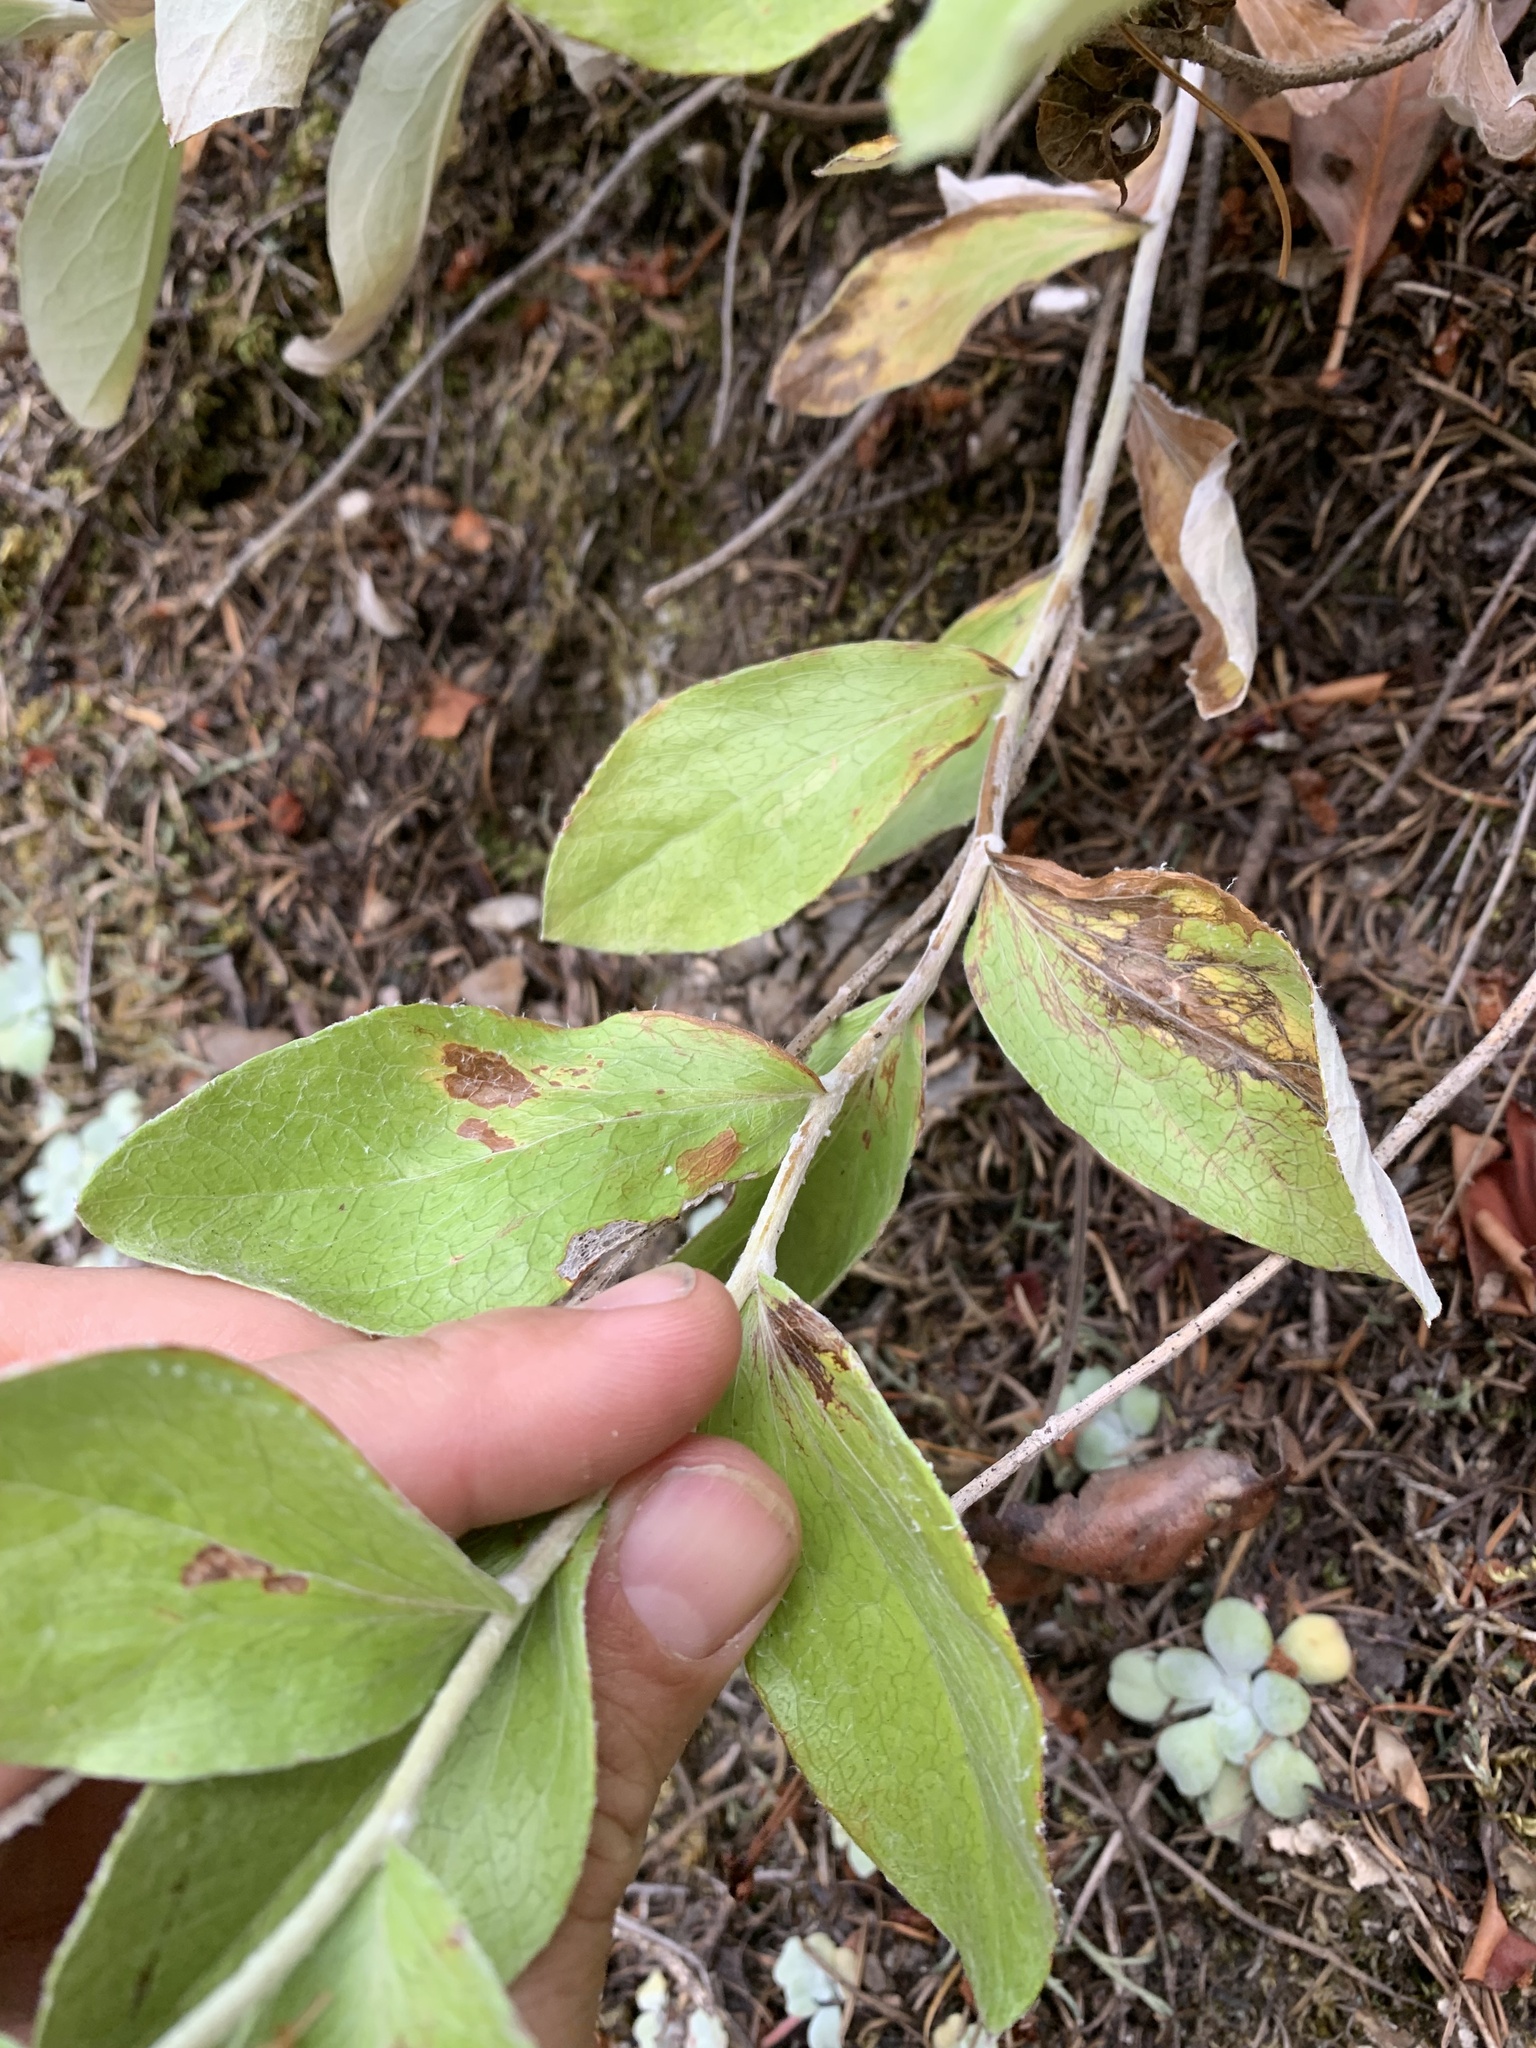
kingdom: Plantae
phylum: Tracheophyta
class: Magnoliopsida
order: Asterales
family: Asteraceae
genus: Luina
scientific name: Luina hypoleuca
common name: Little-leaved luina
